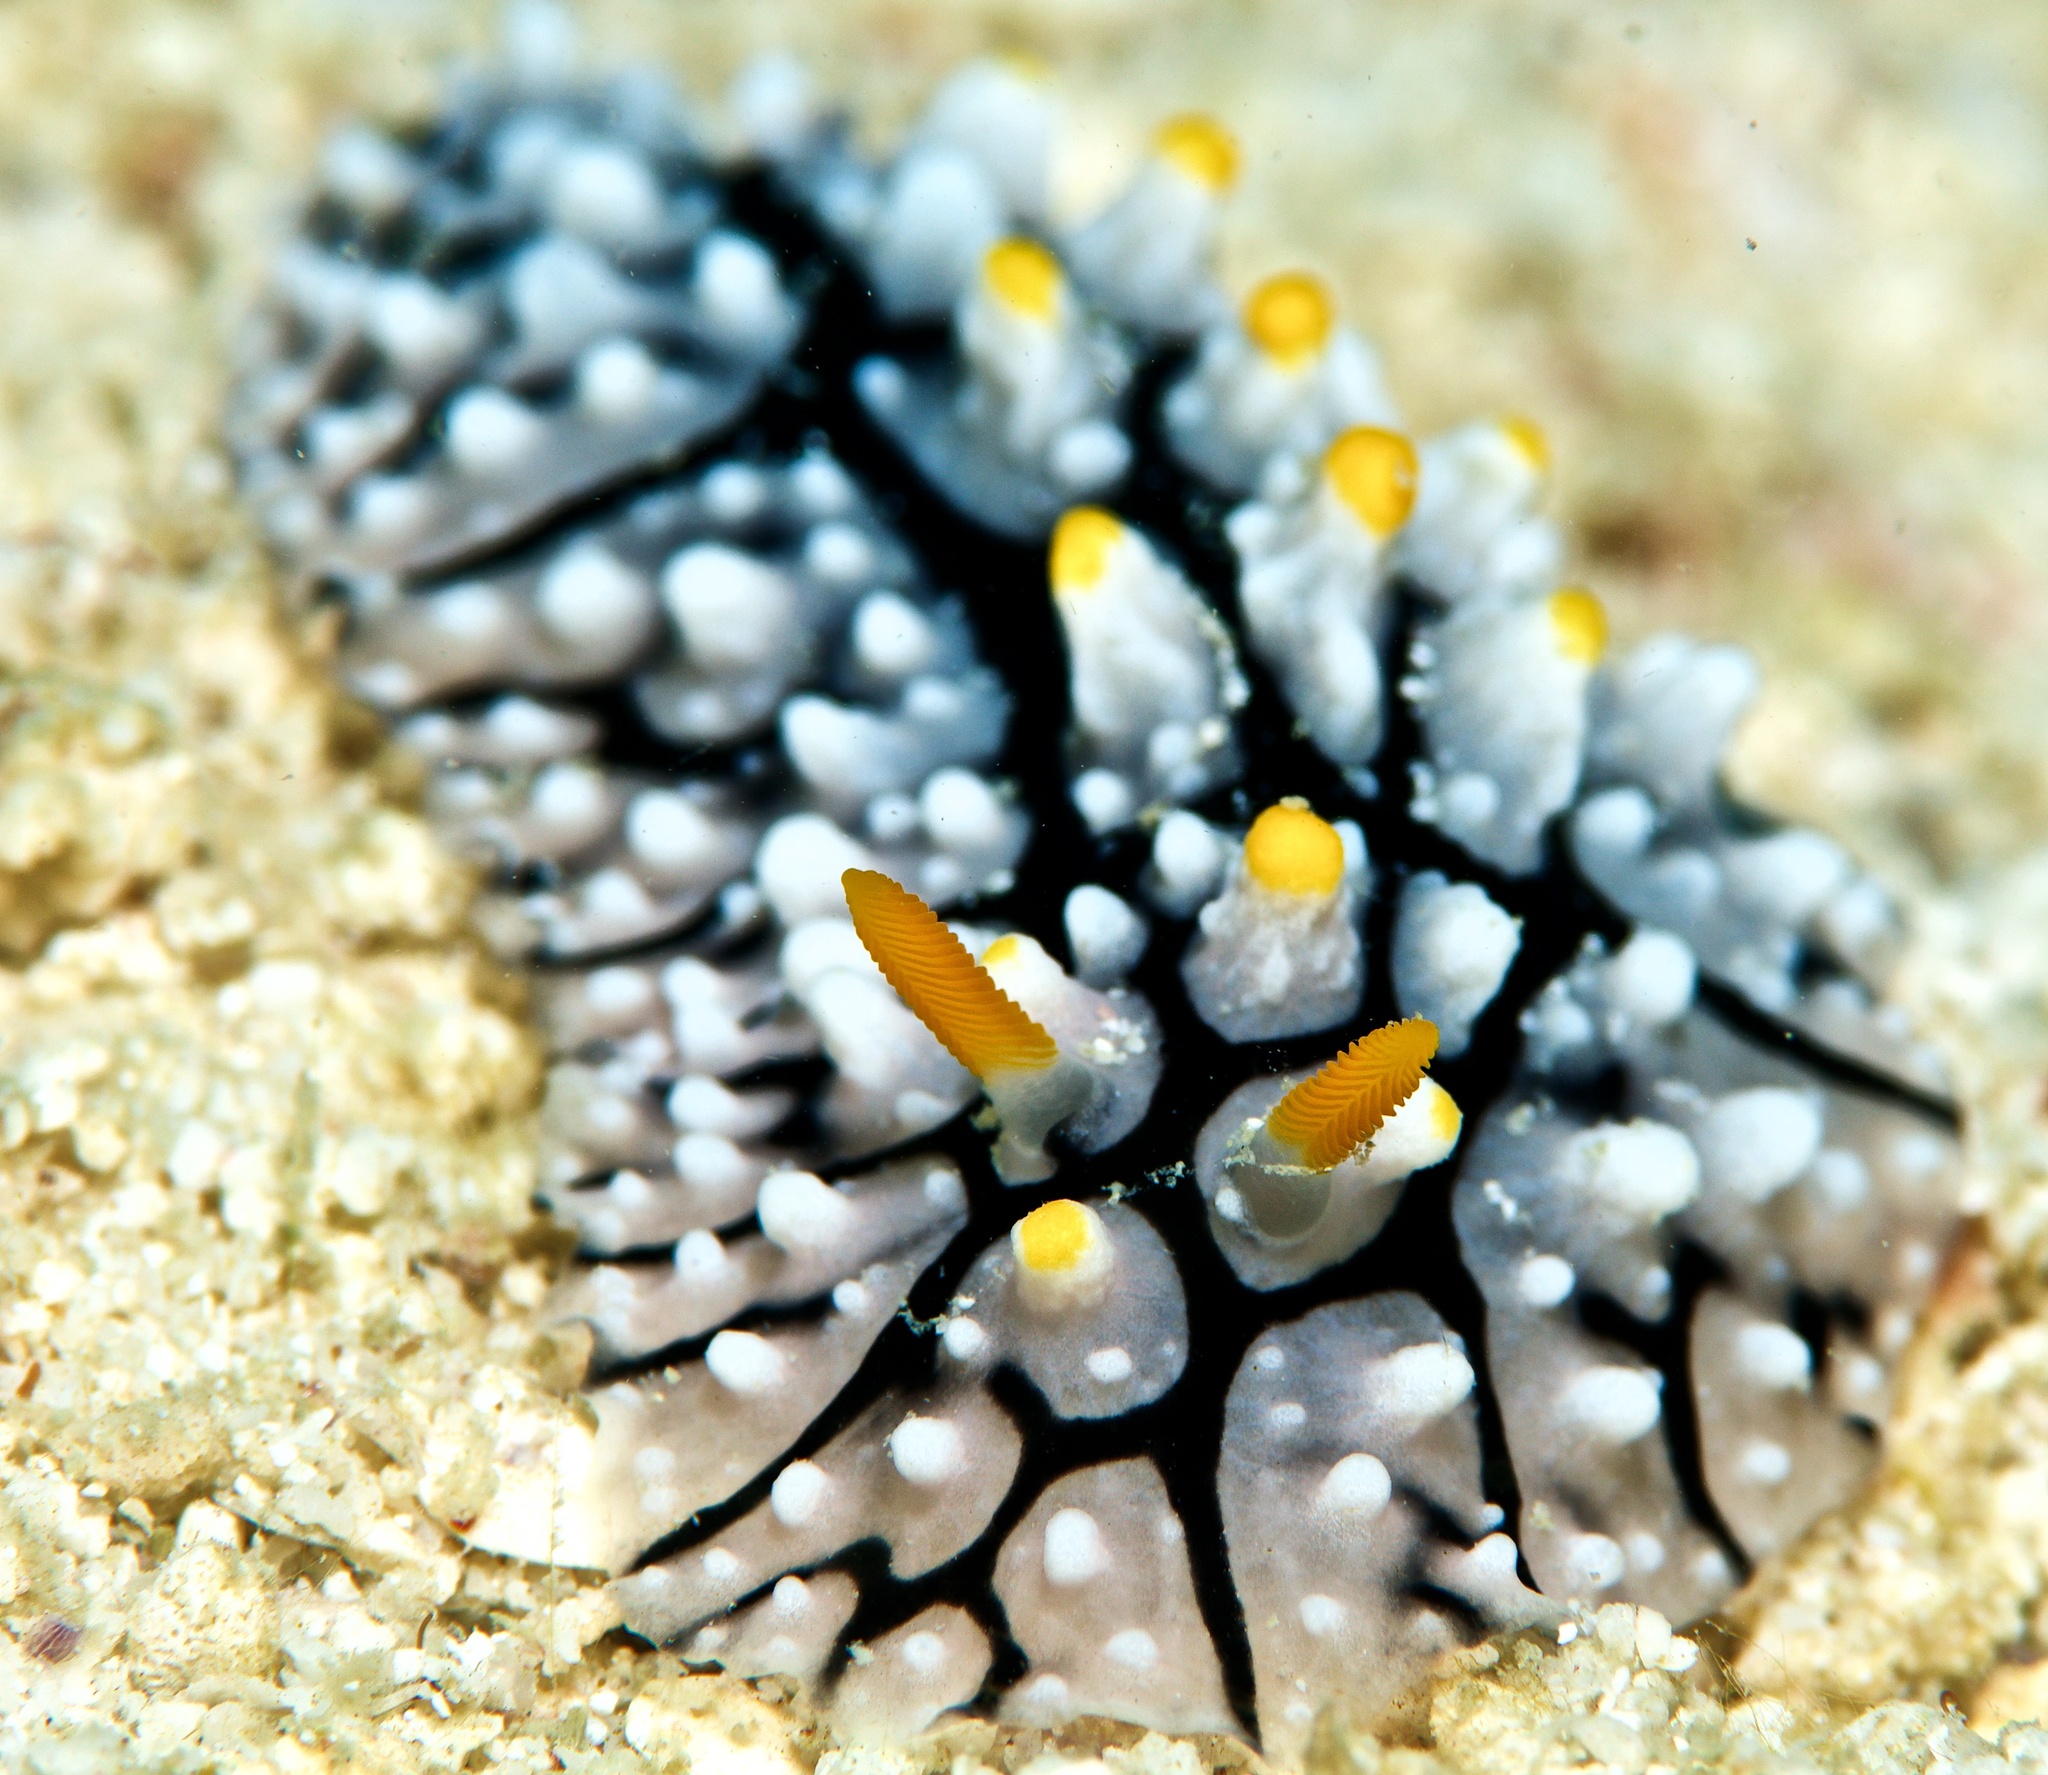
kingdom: Animalia
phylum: Mollusca
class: Gastropoda
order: Nudibranchia
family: Phyllidiidae
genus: Phyllidia
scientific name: Phyllidia elegans
